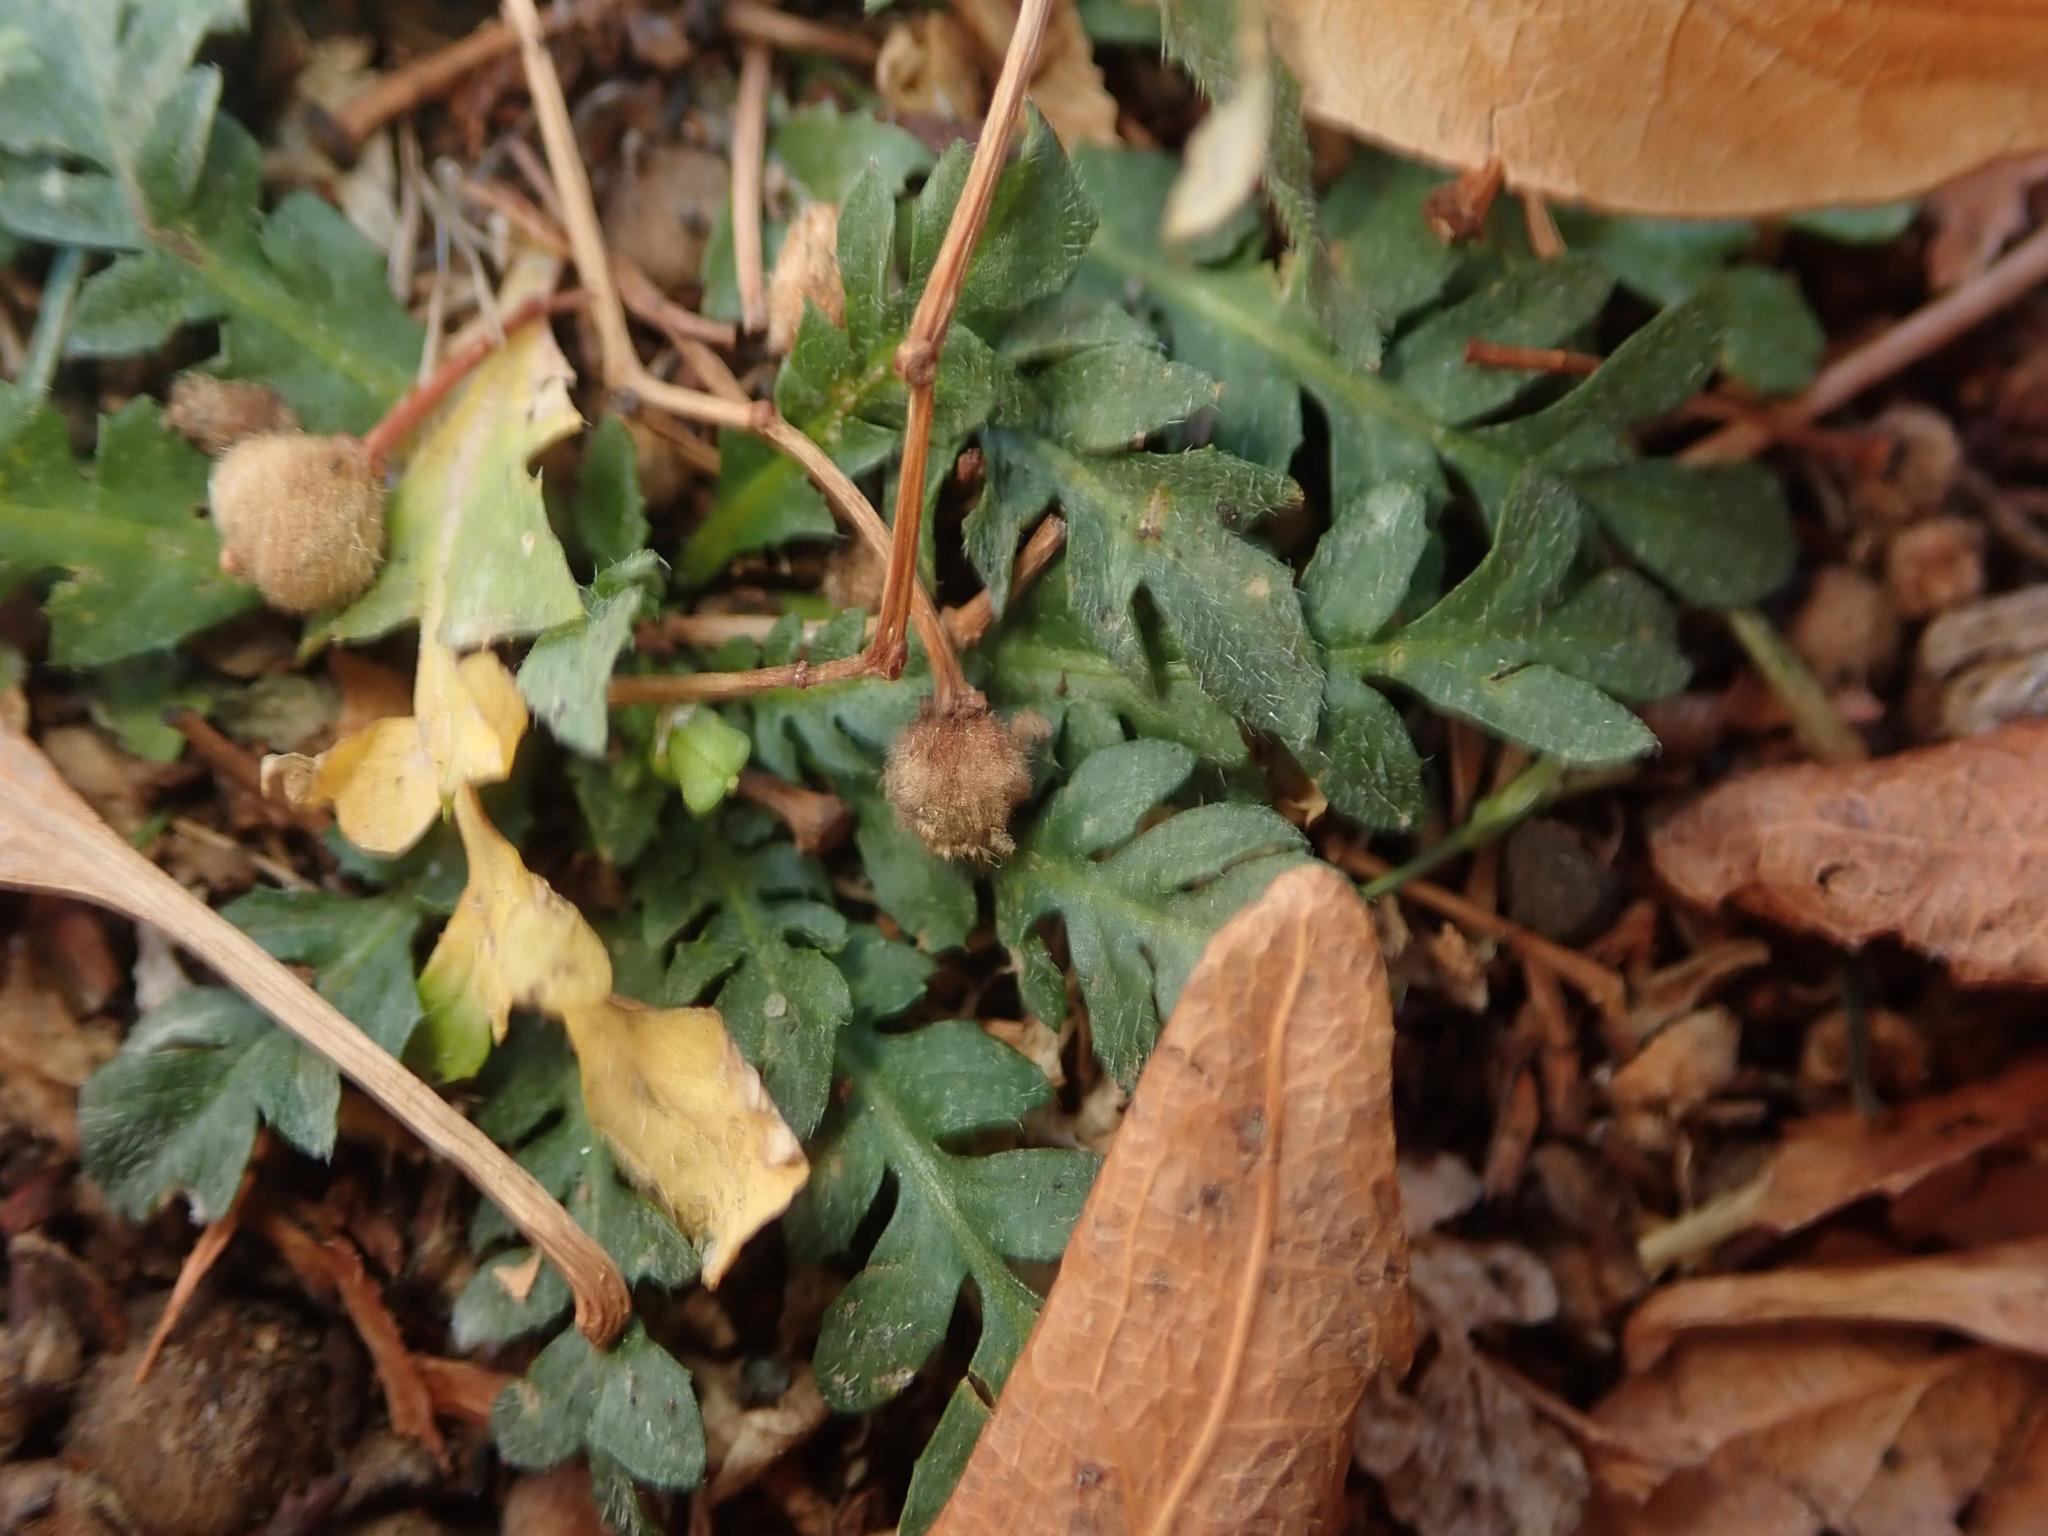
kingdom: Plantae
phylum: Tracheophyta
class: Magnoliopsida
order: Brassicales
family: Brassicaceae
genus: Lepidium
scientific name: Lepidium didymum
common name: Lesser swinecress
